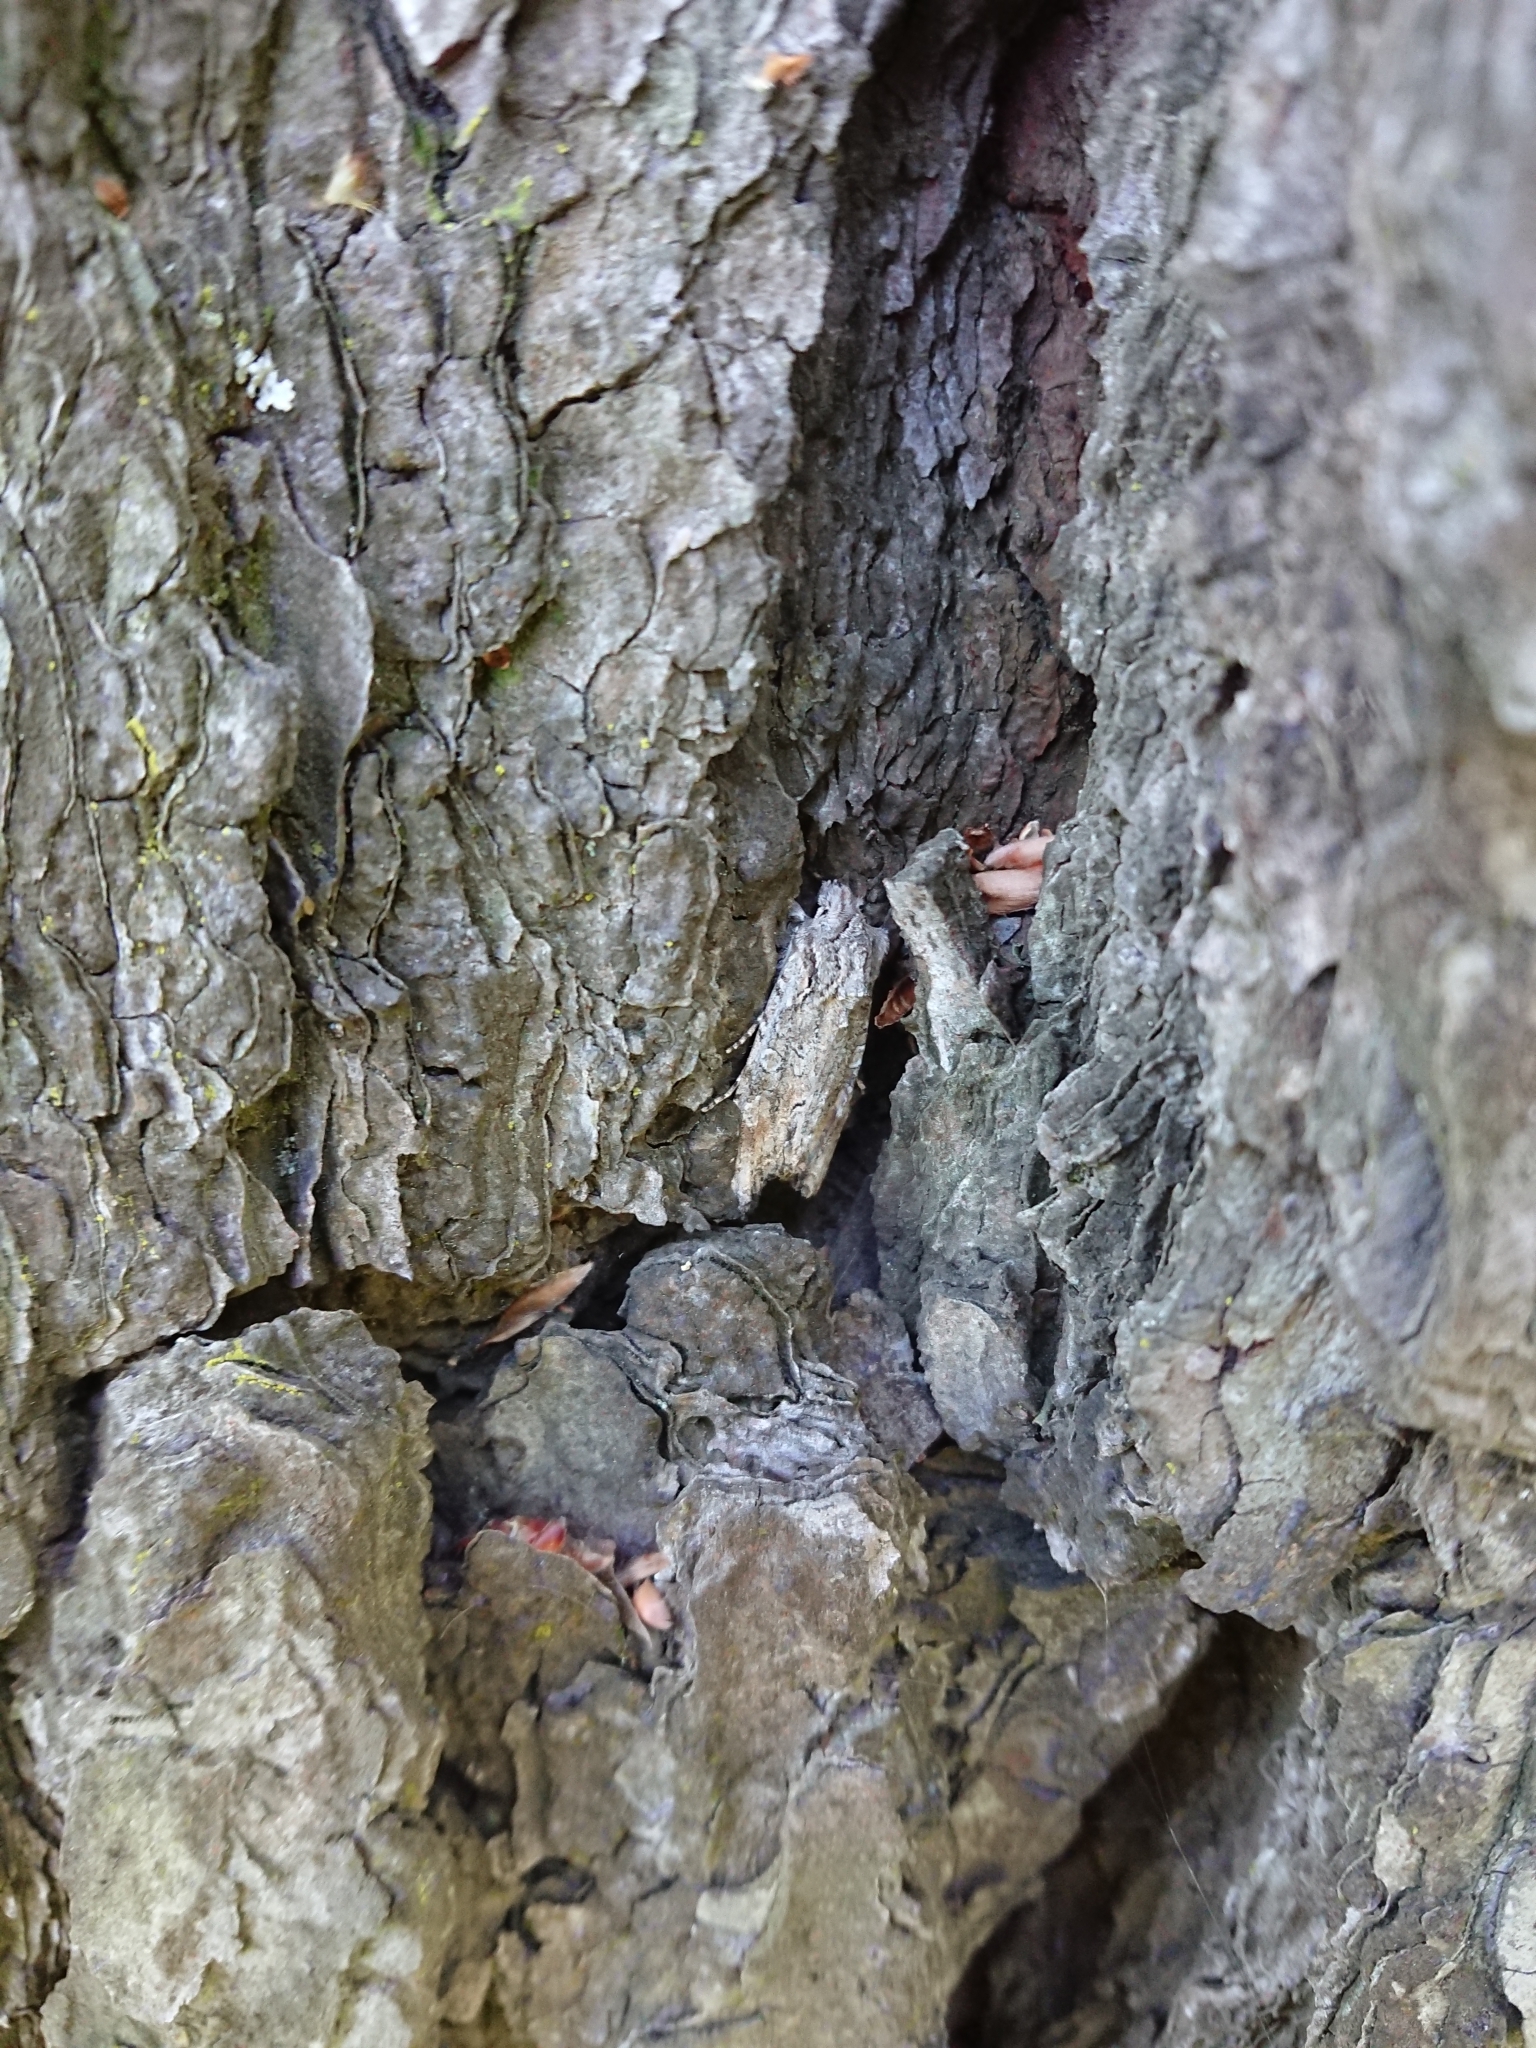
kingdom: Animalia
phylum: Arthropoda
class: Insecta
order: Lepidoptera
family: Noctuidae
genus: Ichneutica
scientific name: Ichneutica mutans
